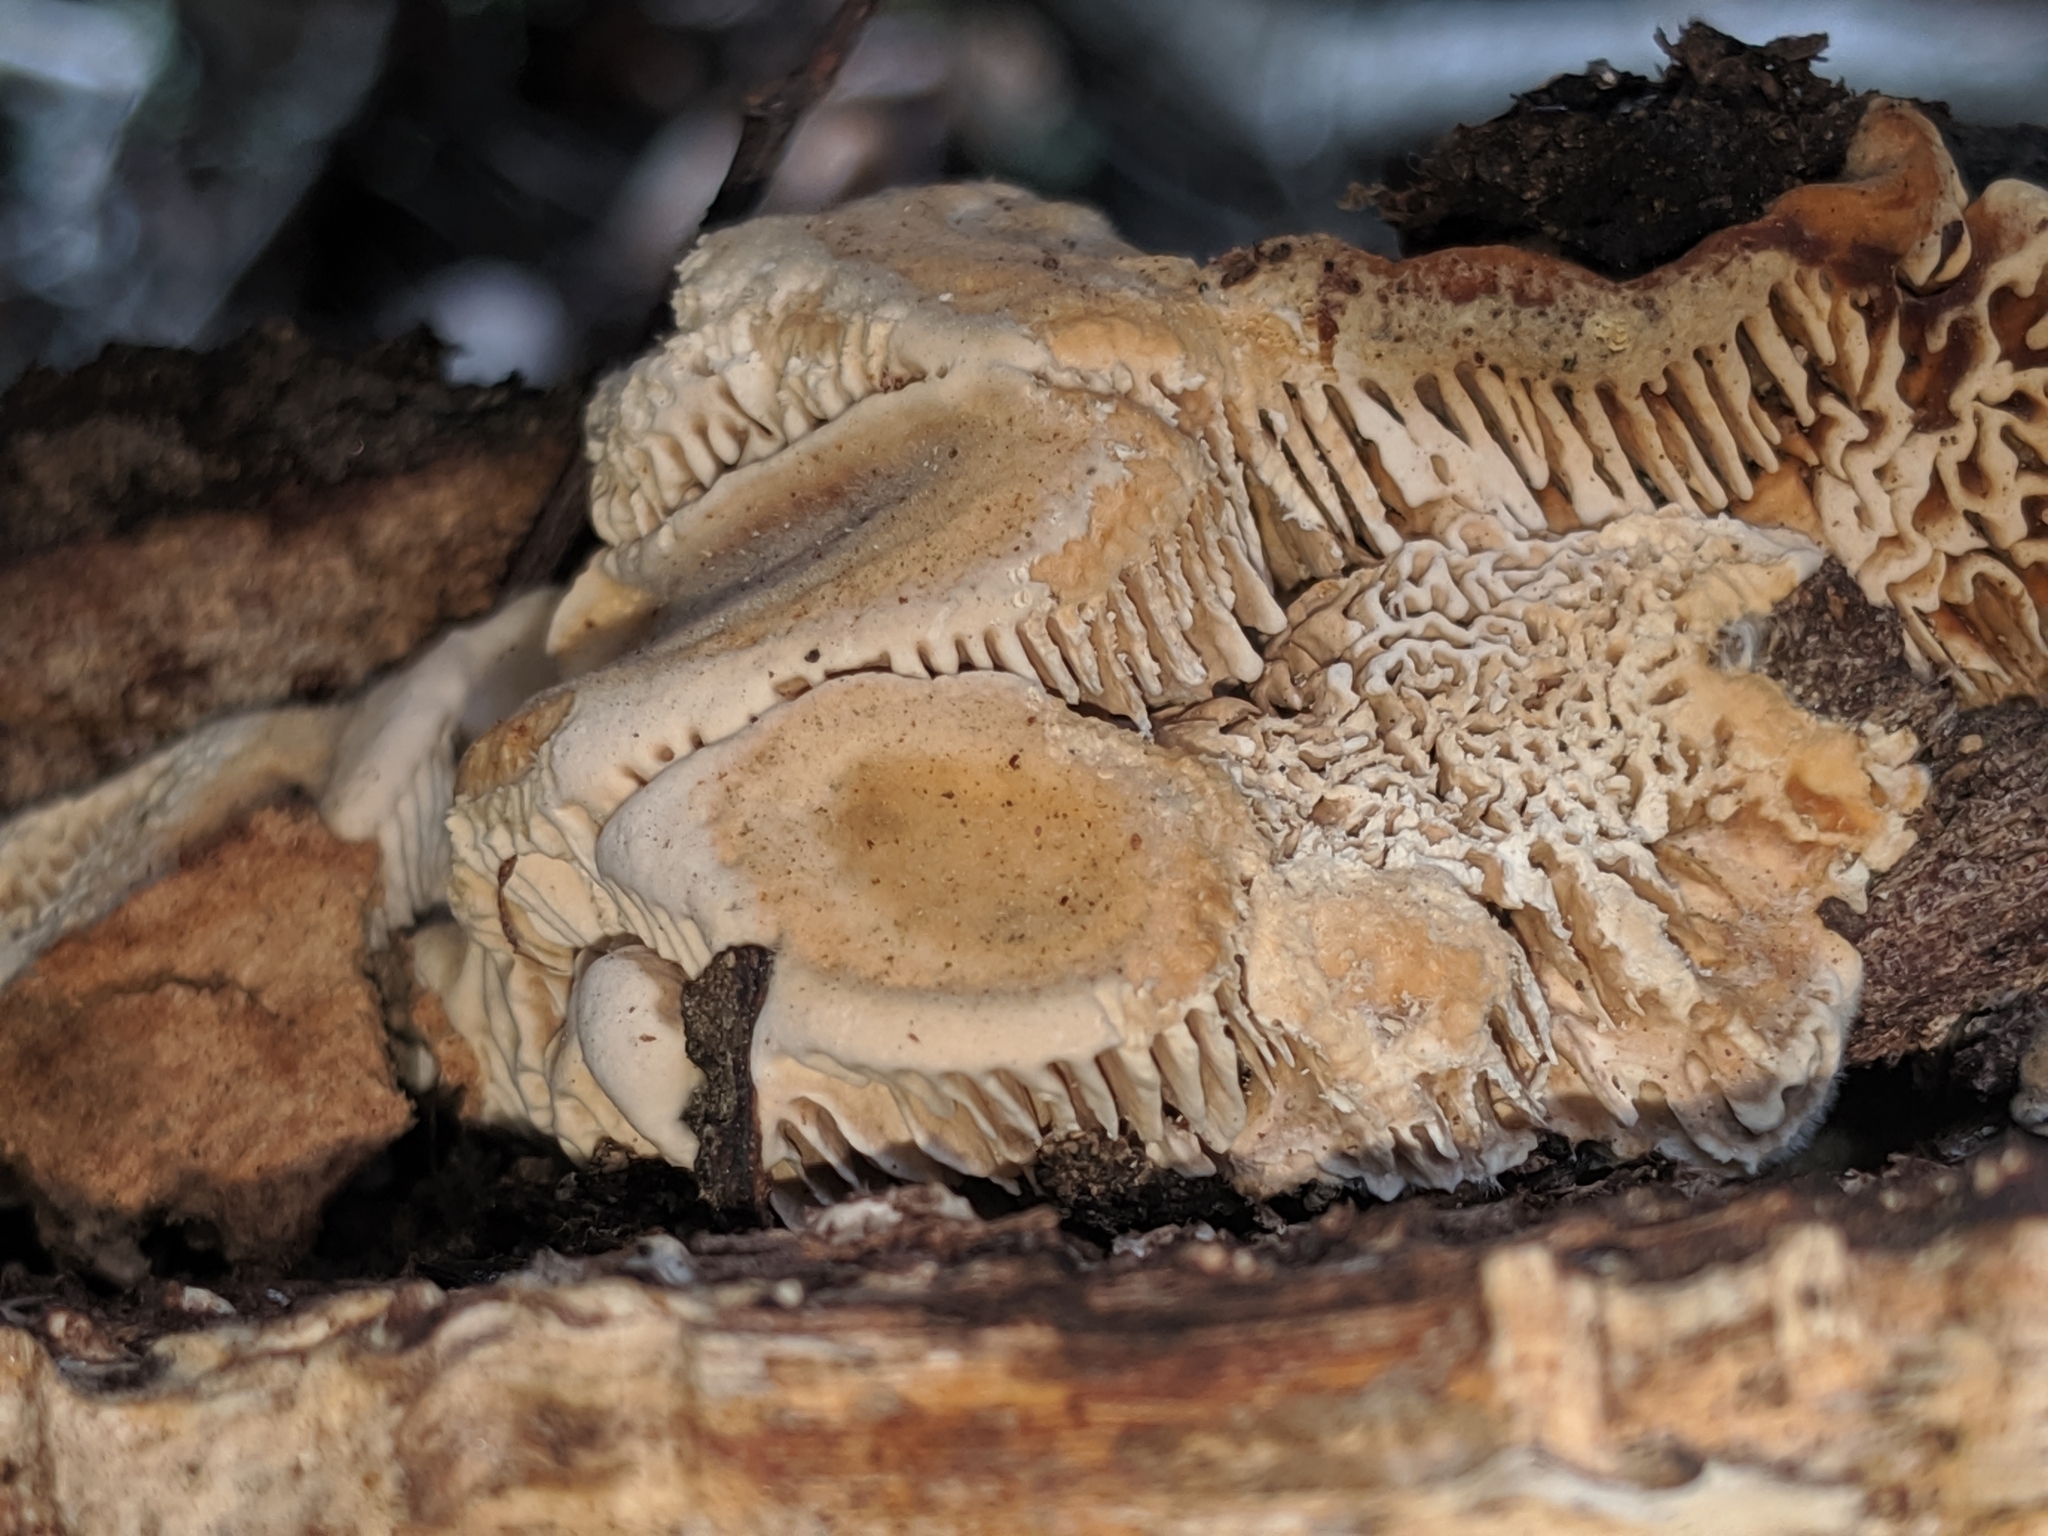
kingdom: Fungi
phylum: Basidiomycota
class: Agaricomycetes
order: Polyporales
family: Polyporaceae
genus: Lenzites
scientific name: Lenzites betulinus
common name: Birch mazegill
